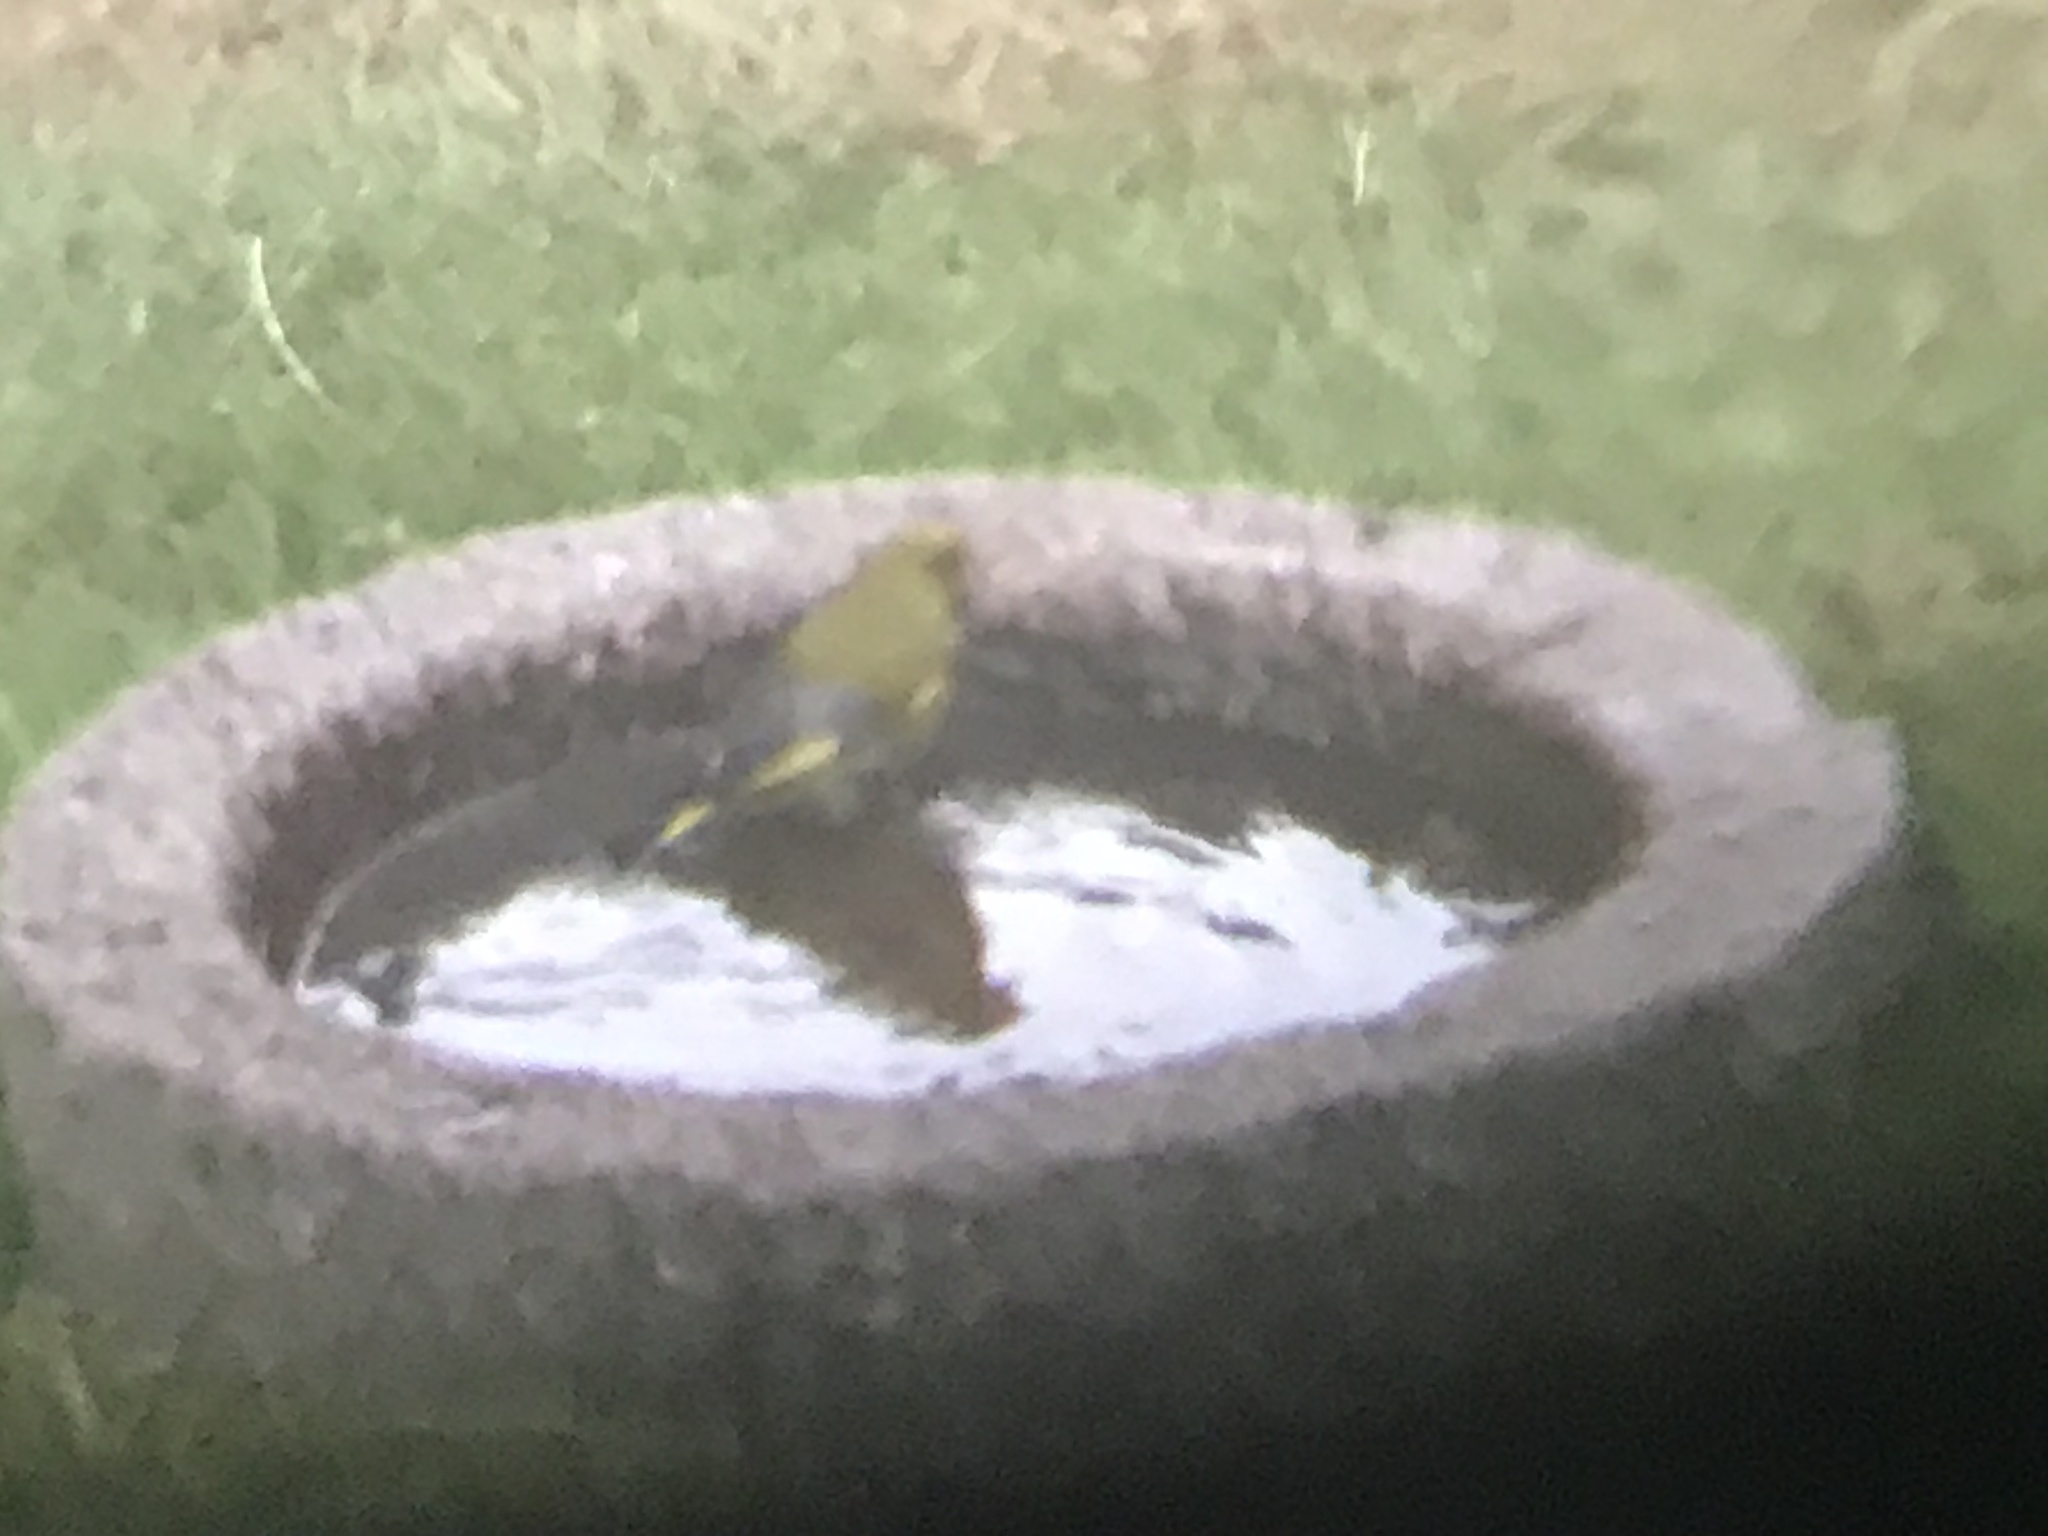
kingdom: Plantae
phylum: Tracheophyta
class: Liliopsida
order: Poales
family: Poaceae
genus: Chloris
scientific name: Chloris chloris
